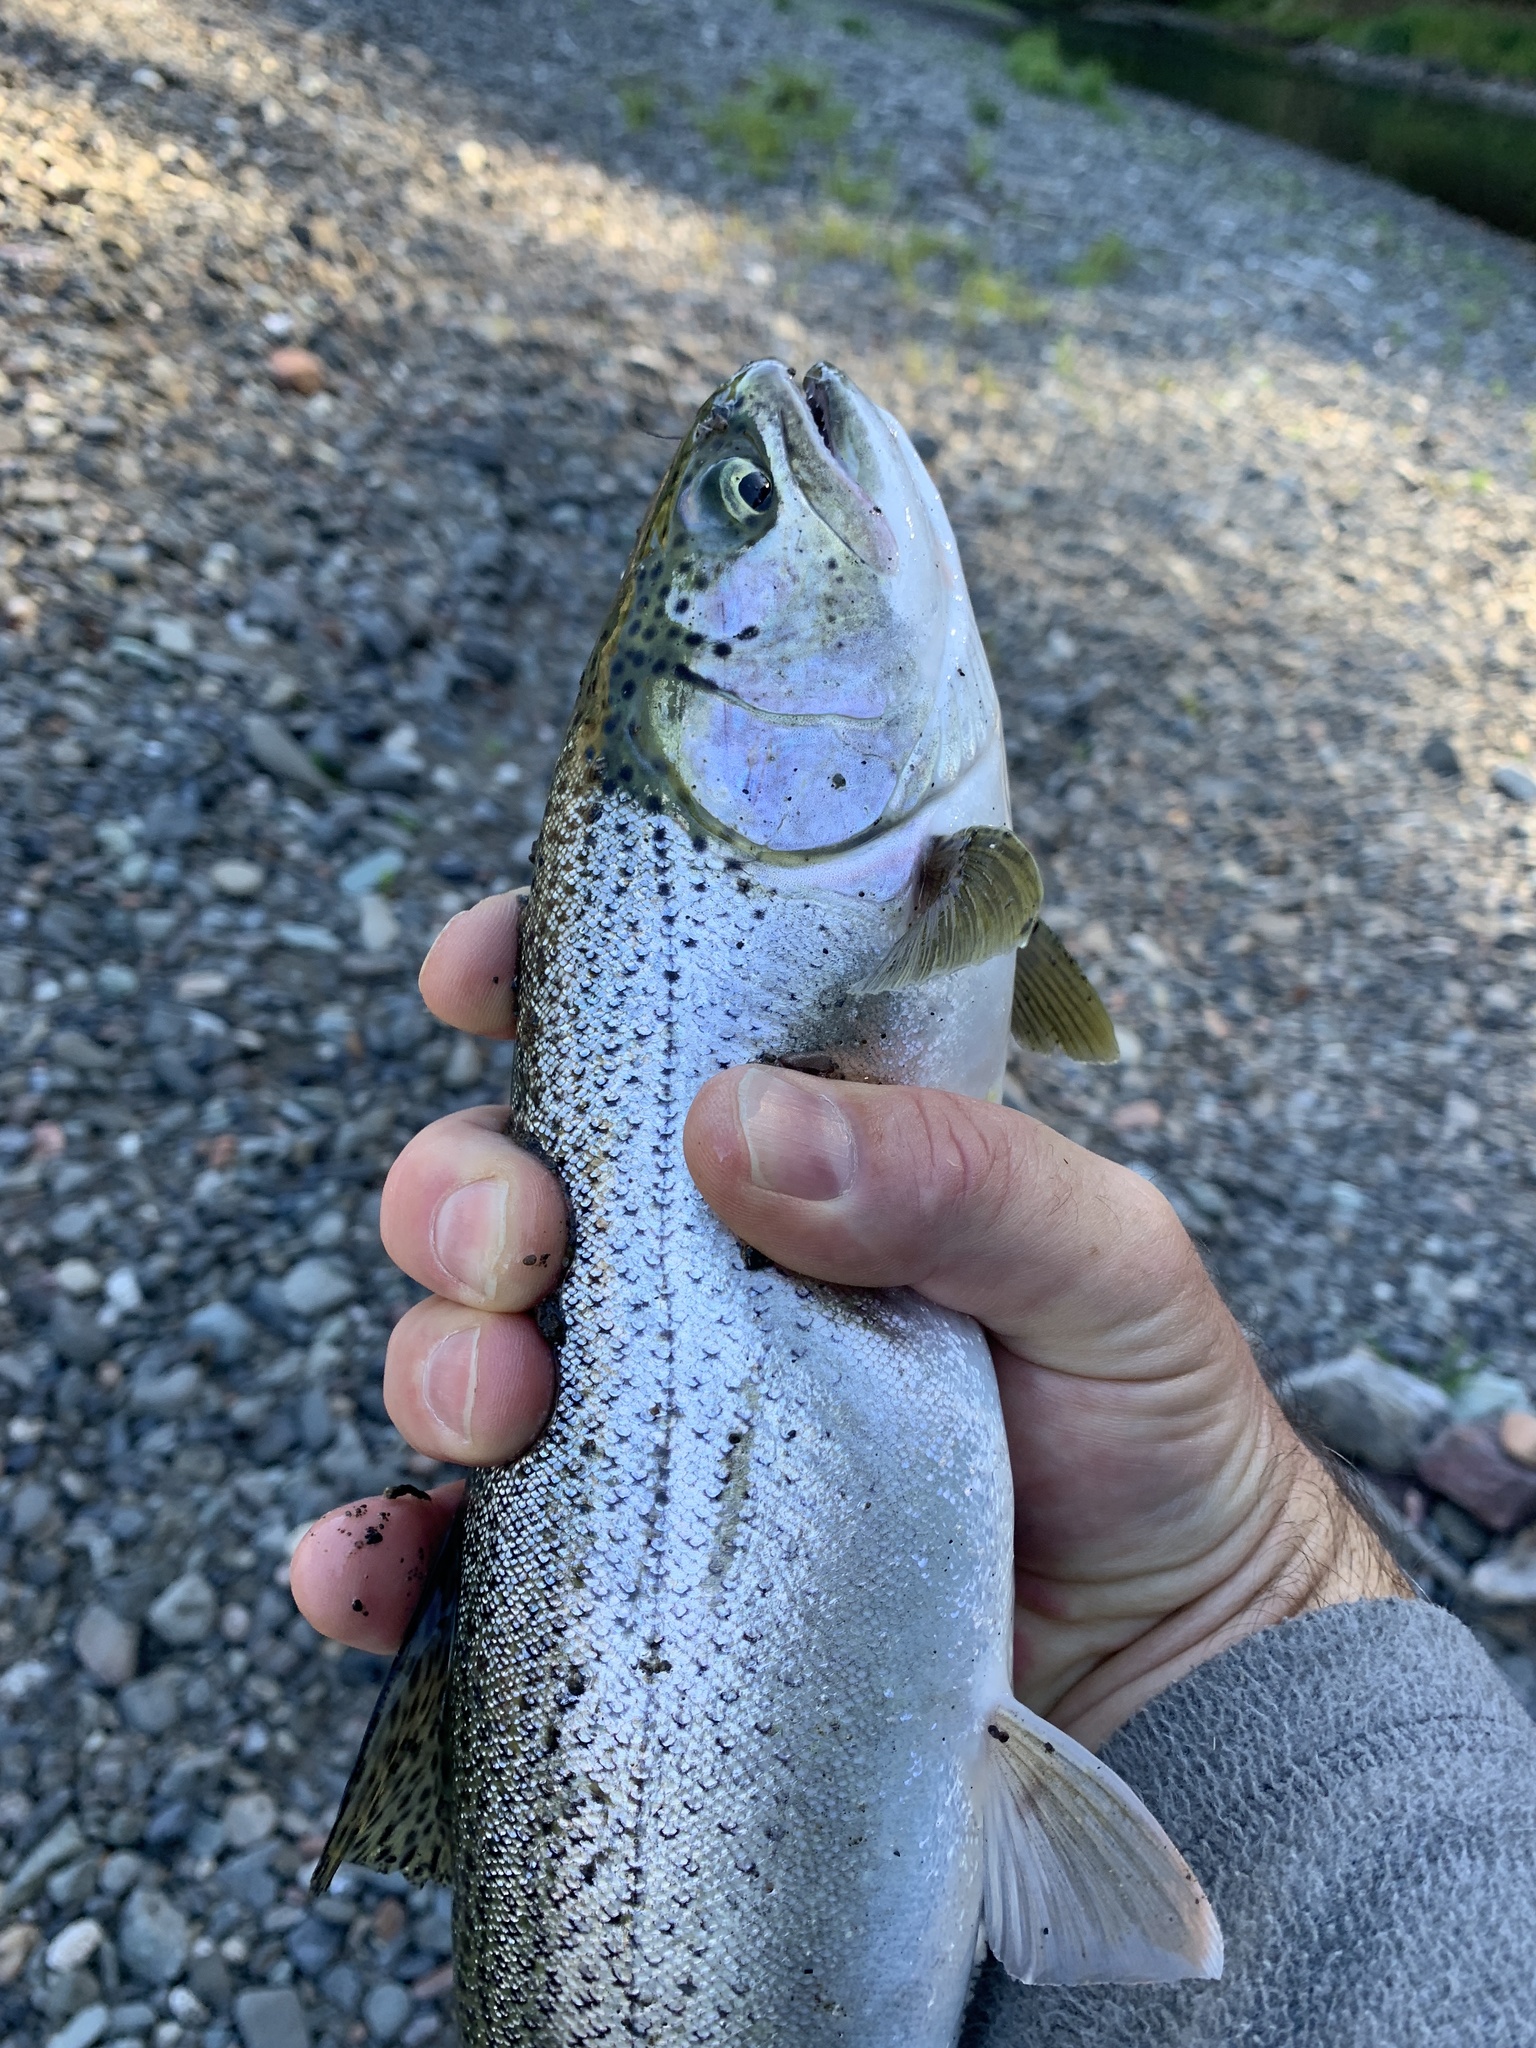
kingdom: Animalia
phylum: Chordata
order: Salmoniformes
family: Salmonidae
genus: Oncorhynchus
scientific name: Oncorhynchus clarkii
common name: Cutthroat trout
